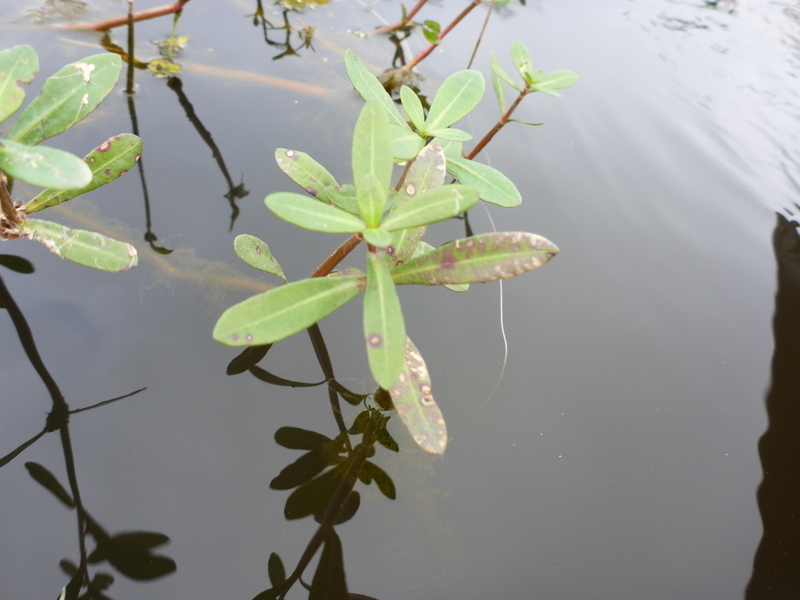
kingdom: Plantae
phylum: Tracheophyta
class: Magnoliopsida
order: Caryophyllales
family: Amaranthaceae
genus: Alternanthera
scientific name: Alternanthera philoxeroides
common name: Alligatorweed
